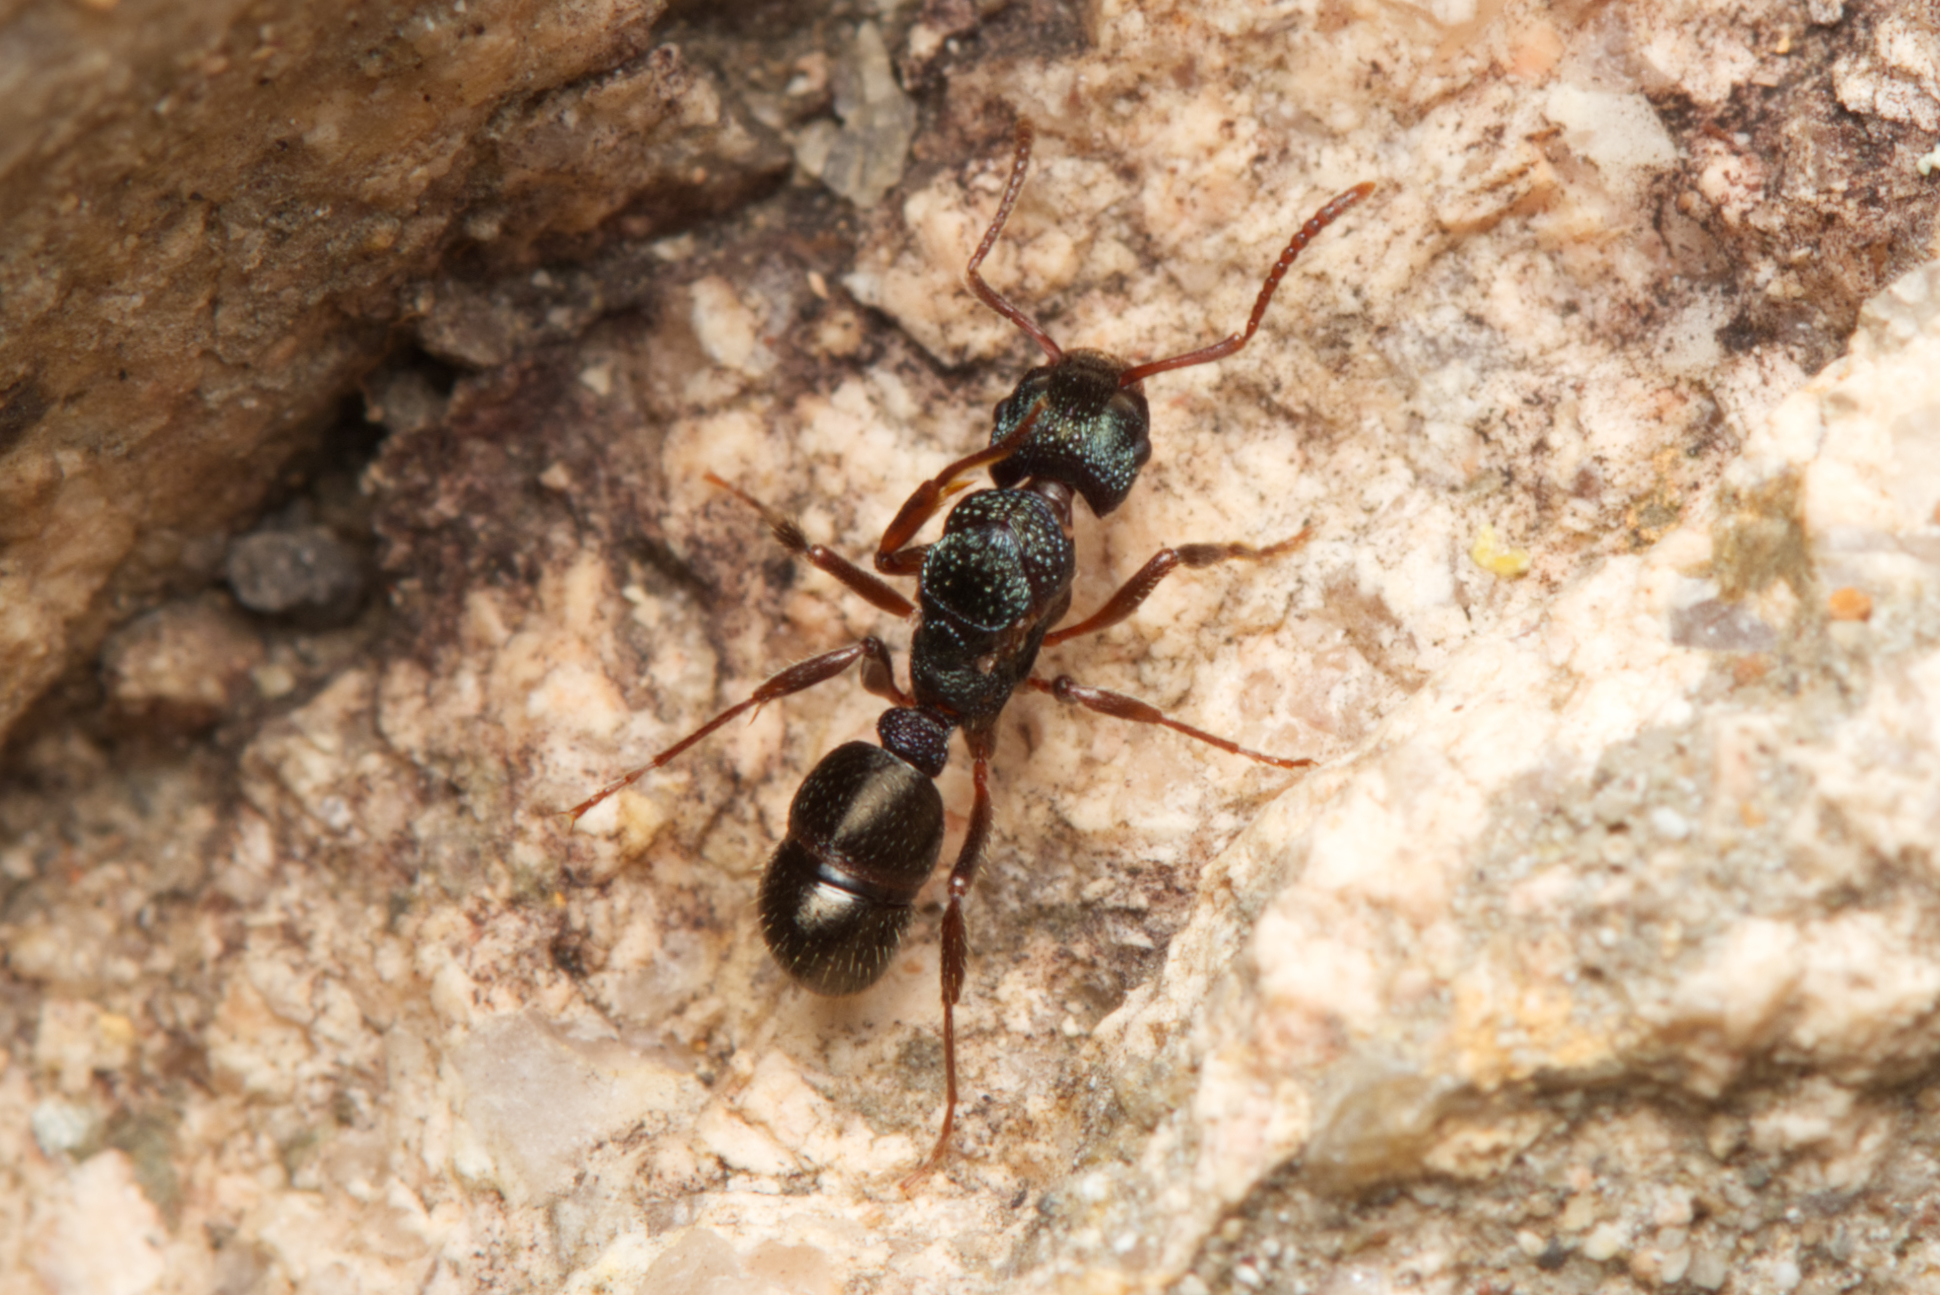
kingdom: Animalia
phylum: Arthropoda
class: Insecta
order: Hymenoptera
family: Formicidae
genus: Rhytidoponera
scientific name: Rhytidoponera victoriae
